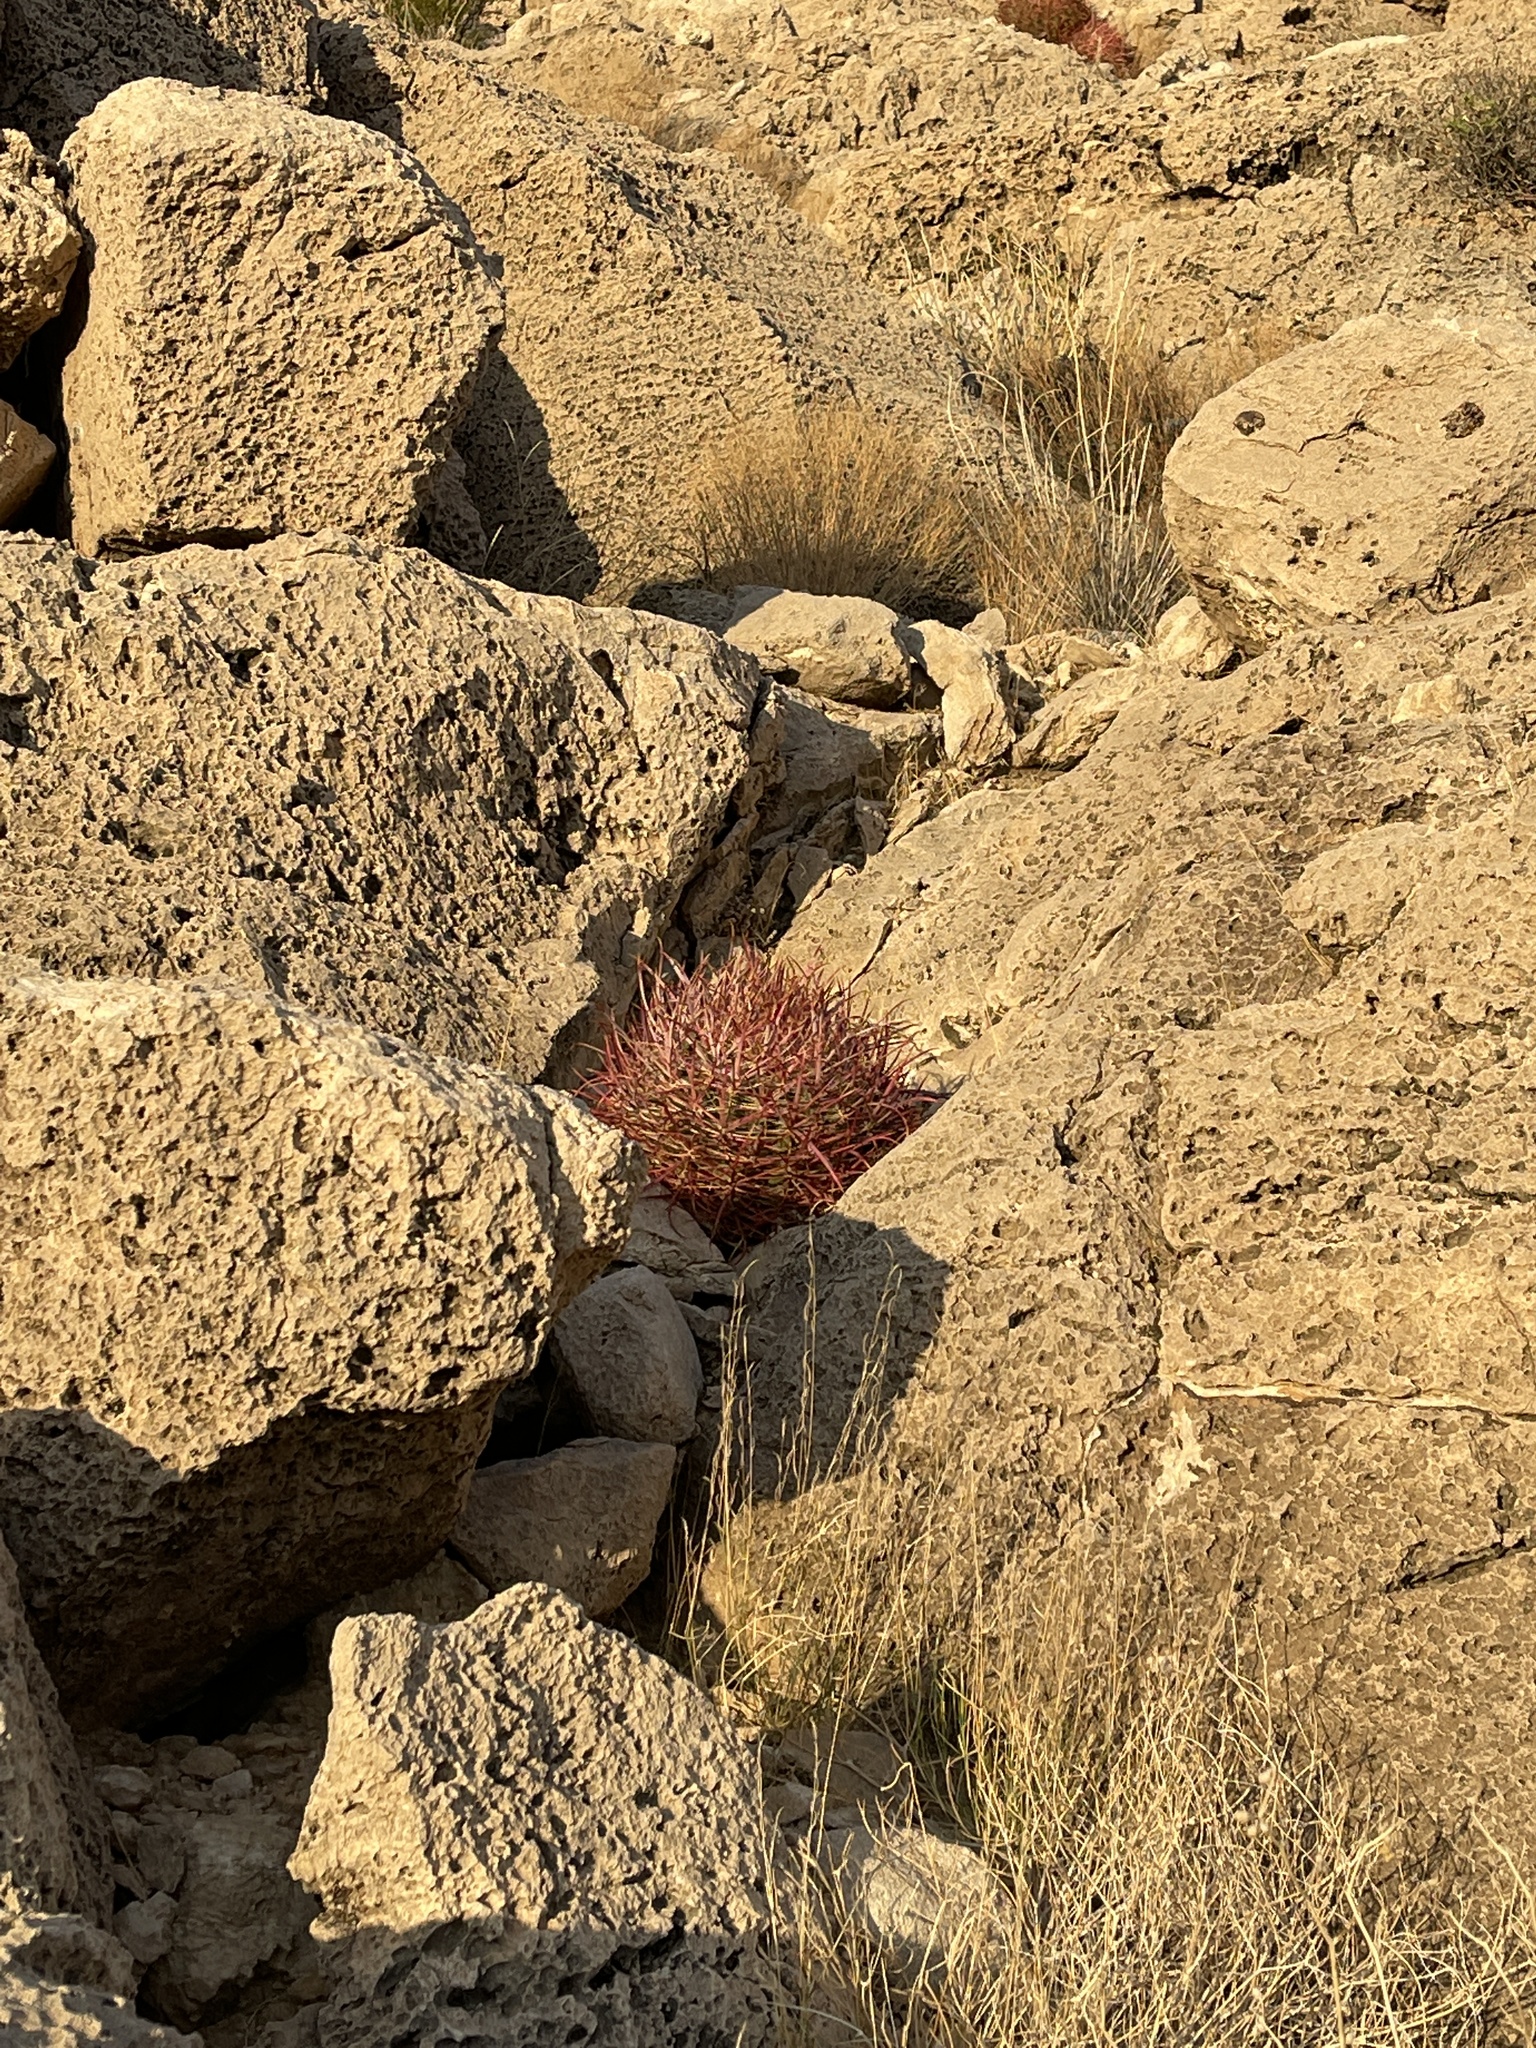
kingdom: Plantae
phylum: Tracheophyta
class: Magnoliopsida
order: Caryophyllales
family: Cactaceae
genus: Ferocactus
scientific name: Ferocactus cylindraceus
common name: California barrel cactus
